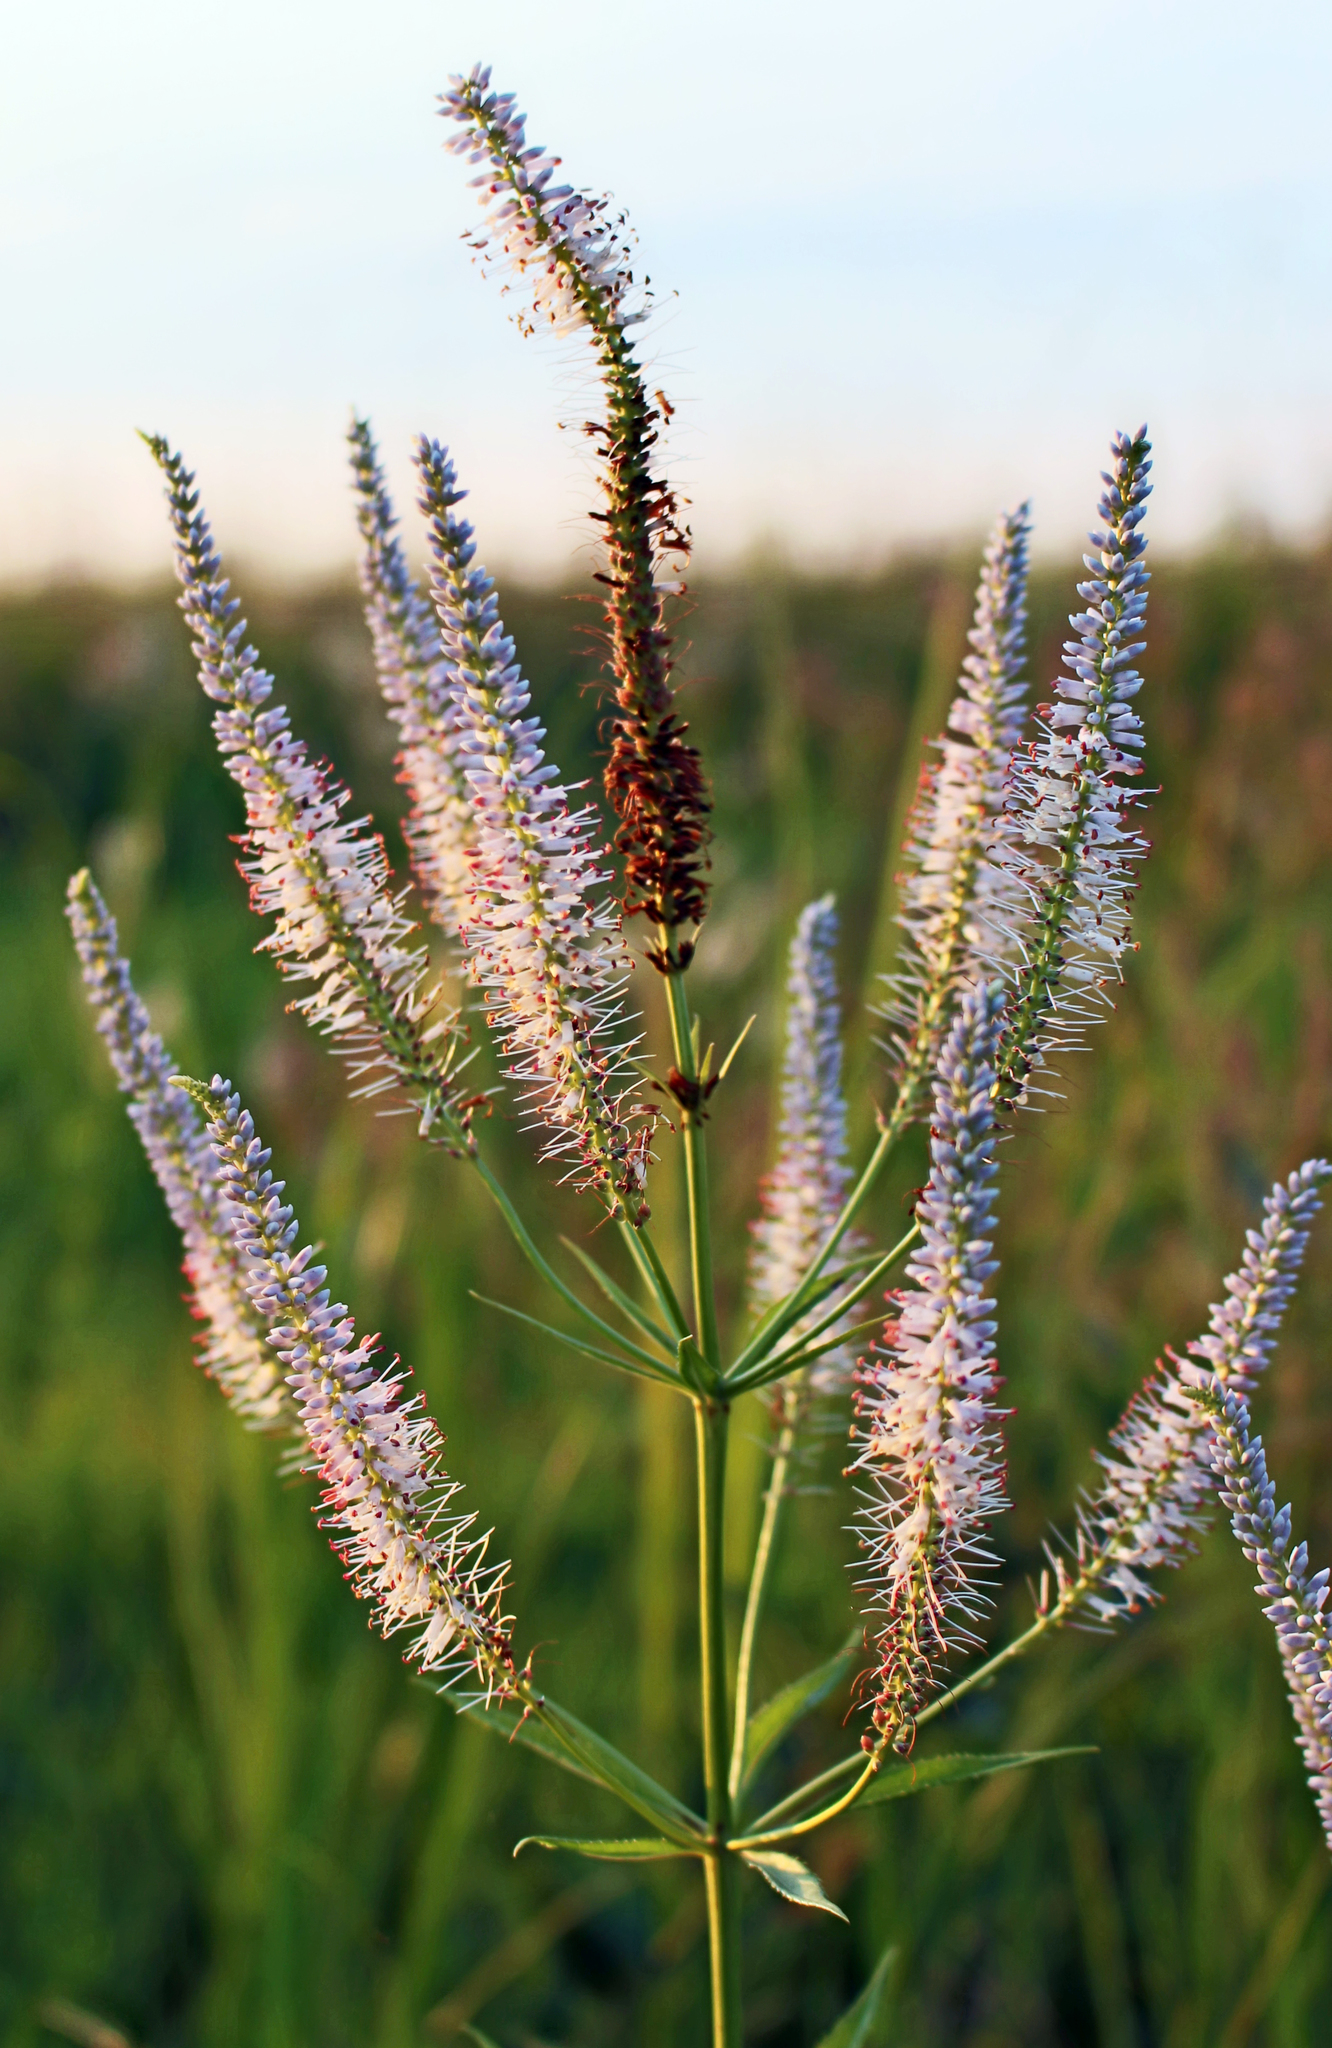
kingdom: Plantae
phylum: Tracheophyta
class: Magnoliopsida
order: Lamiales
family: Plantaginaceae
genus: Veronicastrum
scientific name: Veronicastrum virginicum
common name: Blackroot
